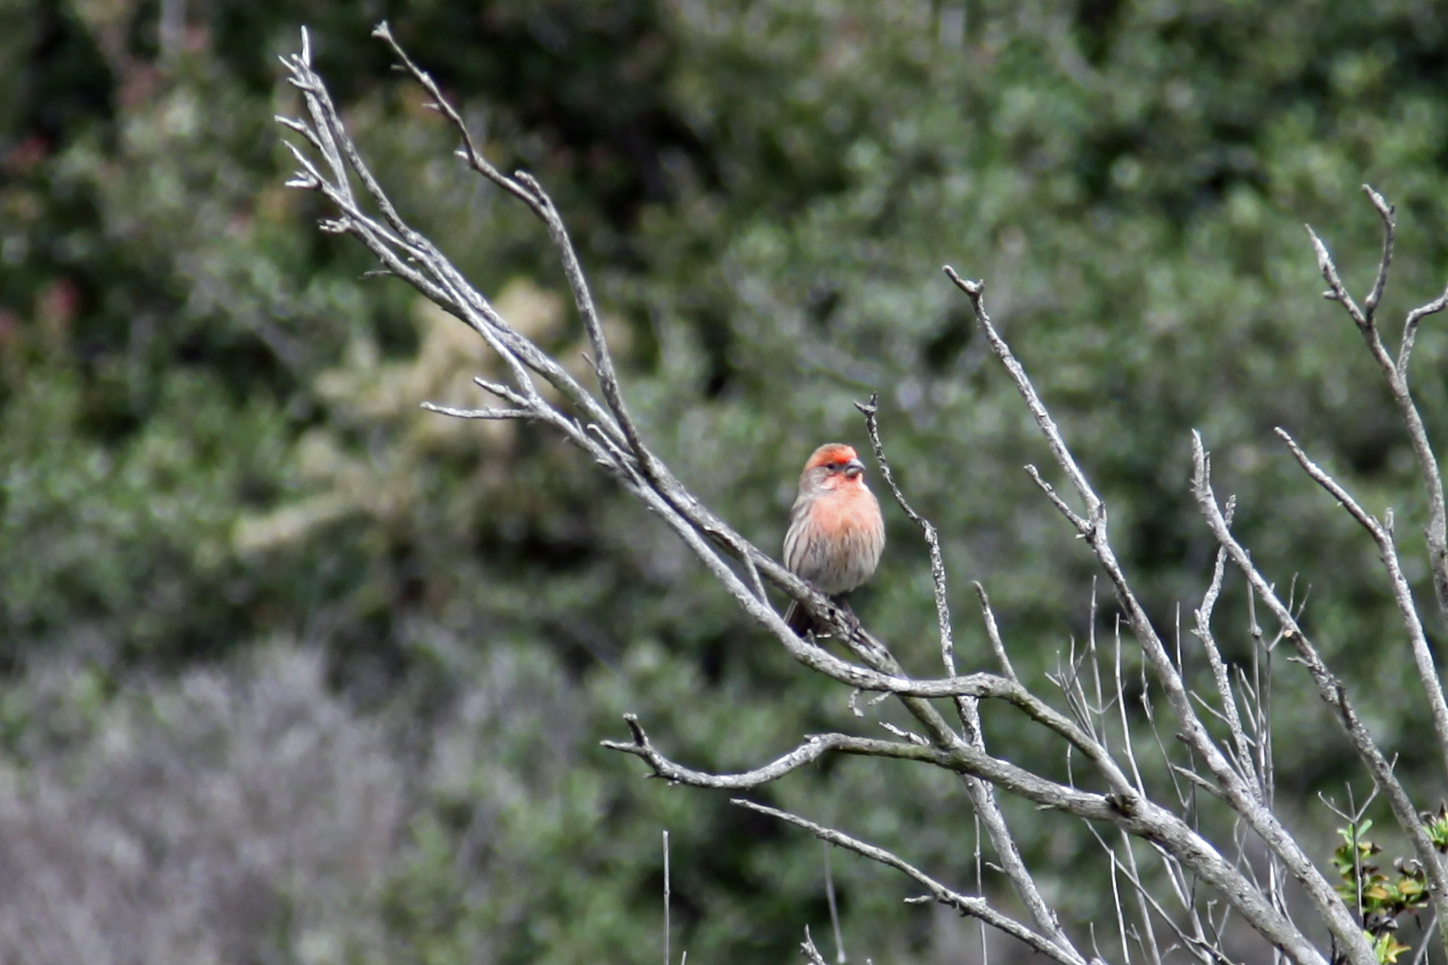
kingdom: Animalia
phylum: Chordata
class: Aves
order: Passeriformes
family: Fringillidae
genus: Haemorhous
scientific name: Haemorhous mexicanus
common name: House finch
